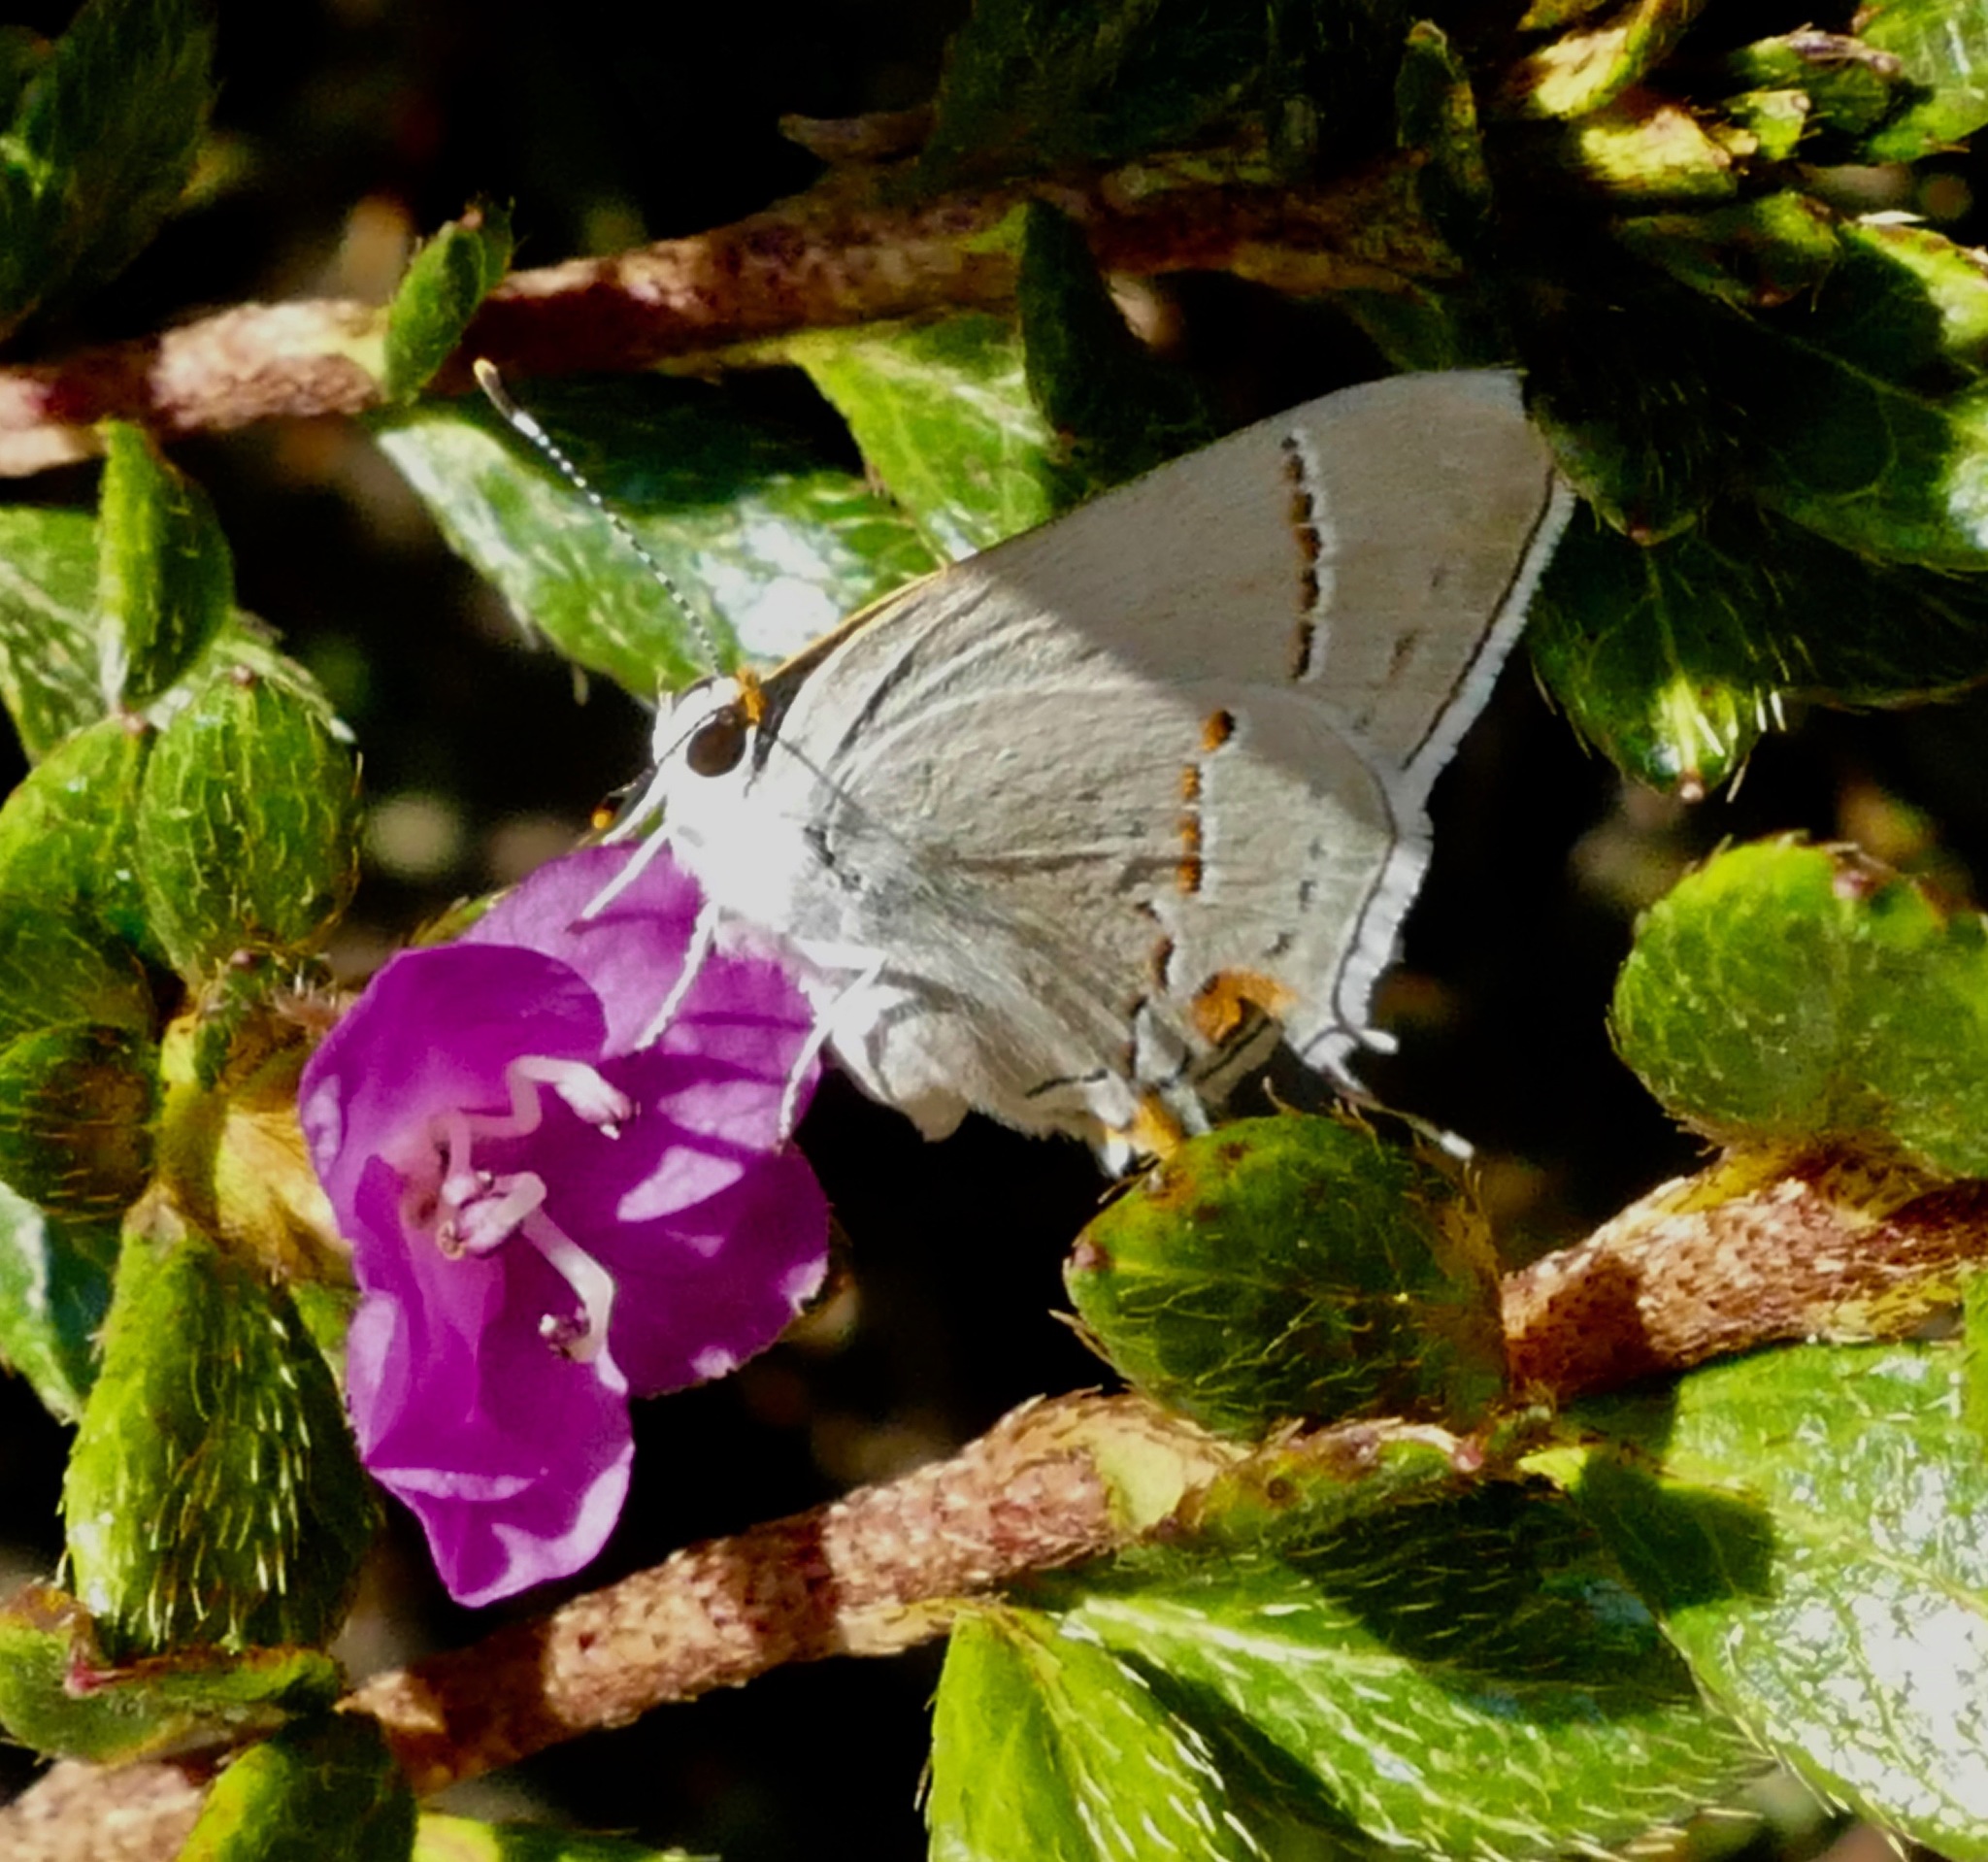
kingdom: Animalia
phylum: Arthropoda
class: Insecta
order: Lepidoptera
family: Lycaenidae
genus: Strymon
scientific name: Strymon melinus
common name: Gray hairstreak
